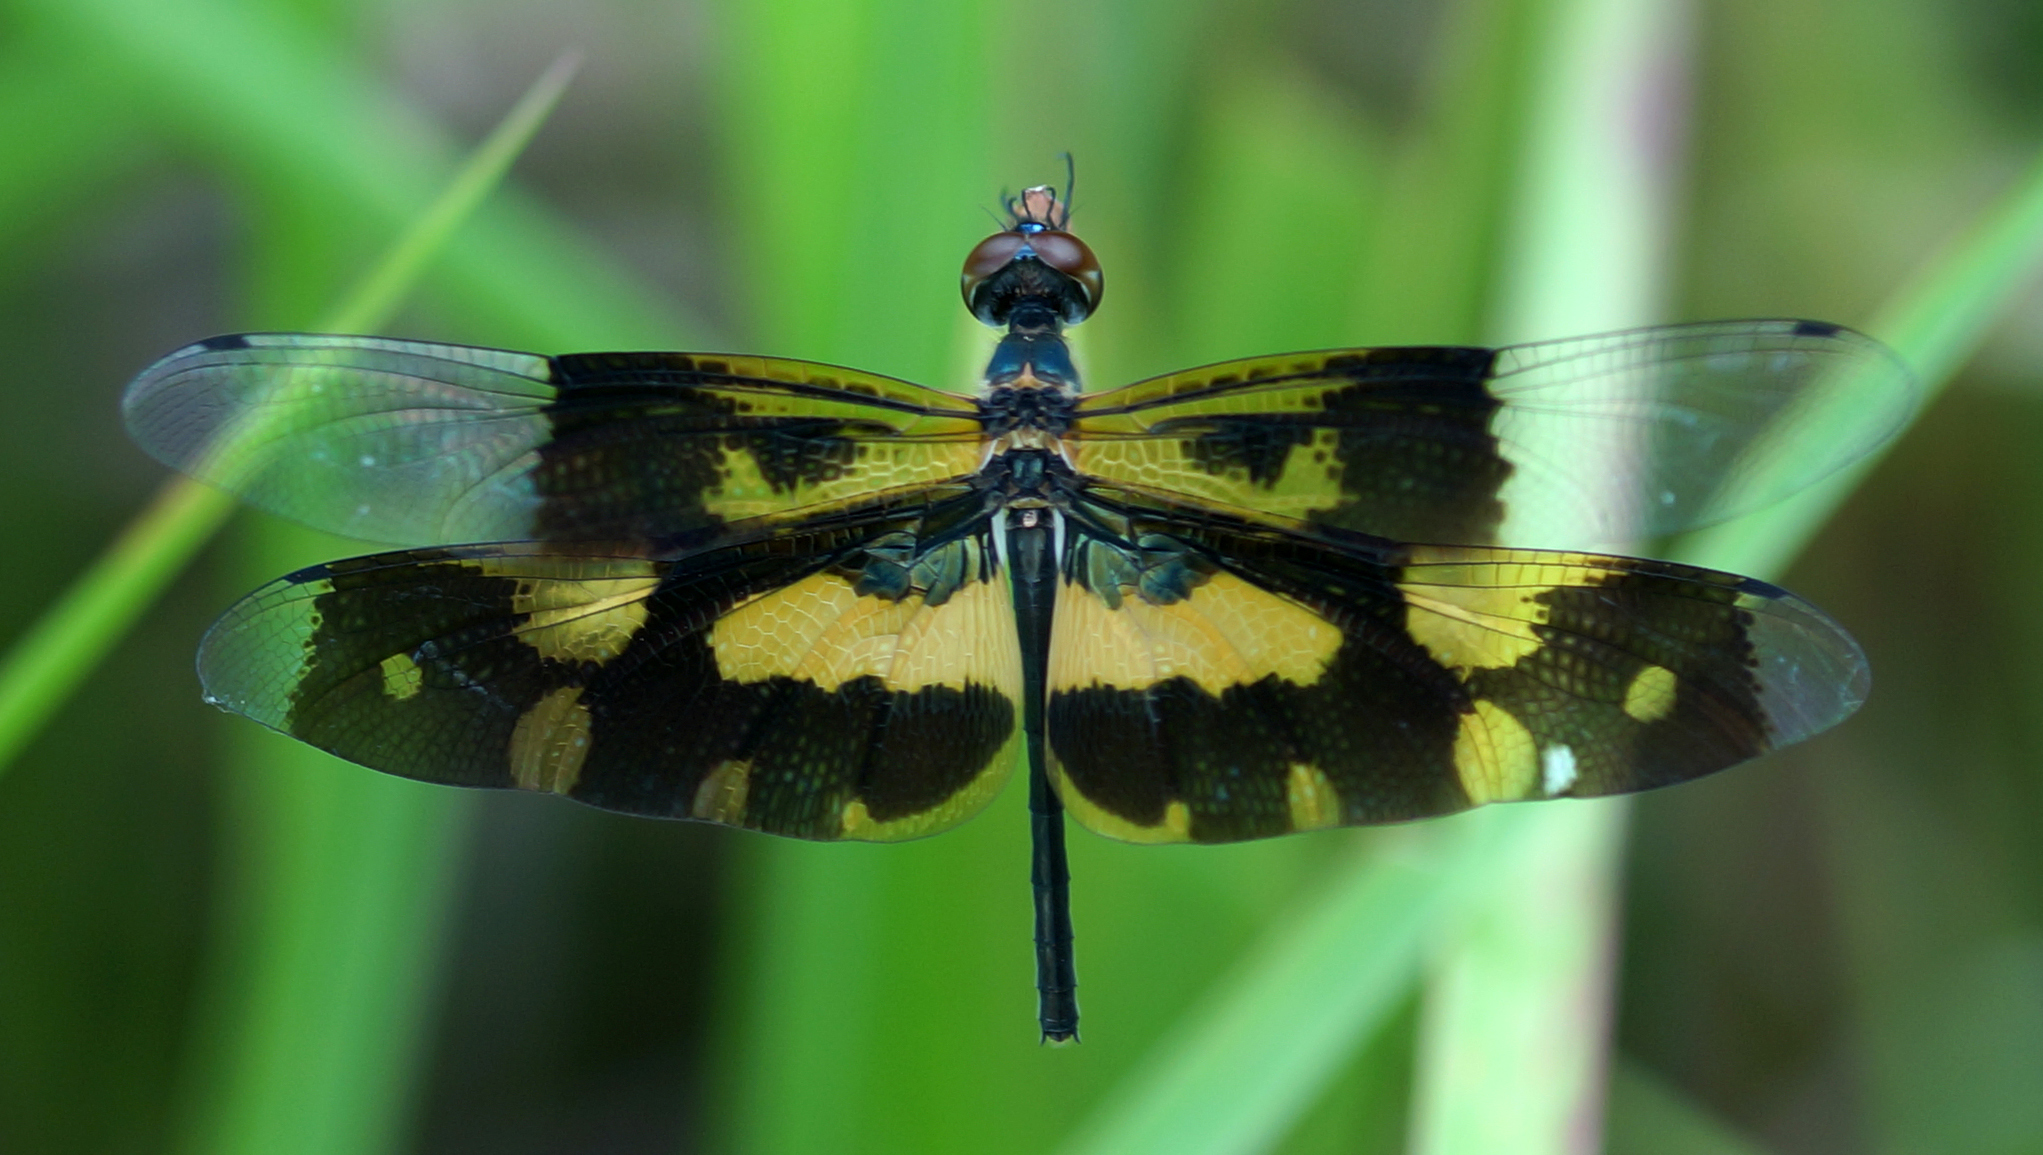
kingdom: Animalia
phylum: Arthropoda
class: Insecta
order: Odonata
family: Libellulidae
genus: Rhyothemis
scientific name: Rhyothemis variegata
